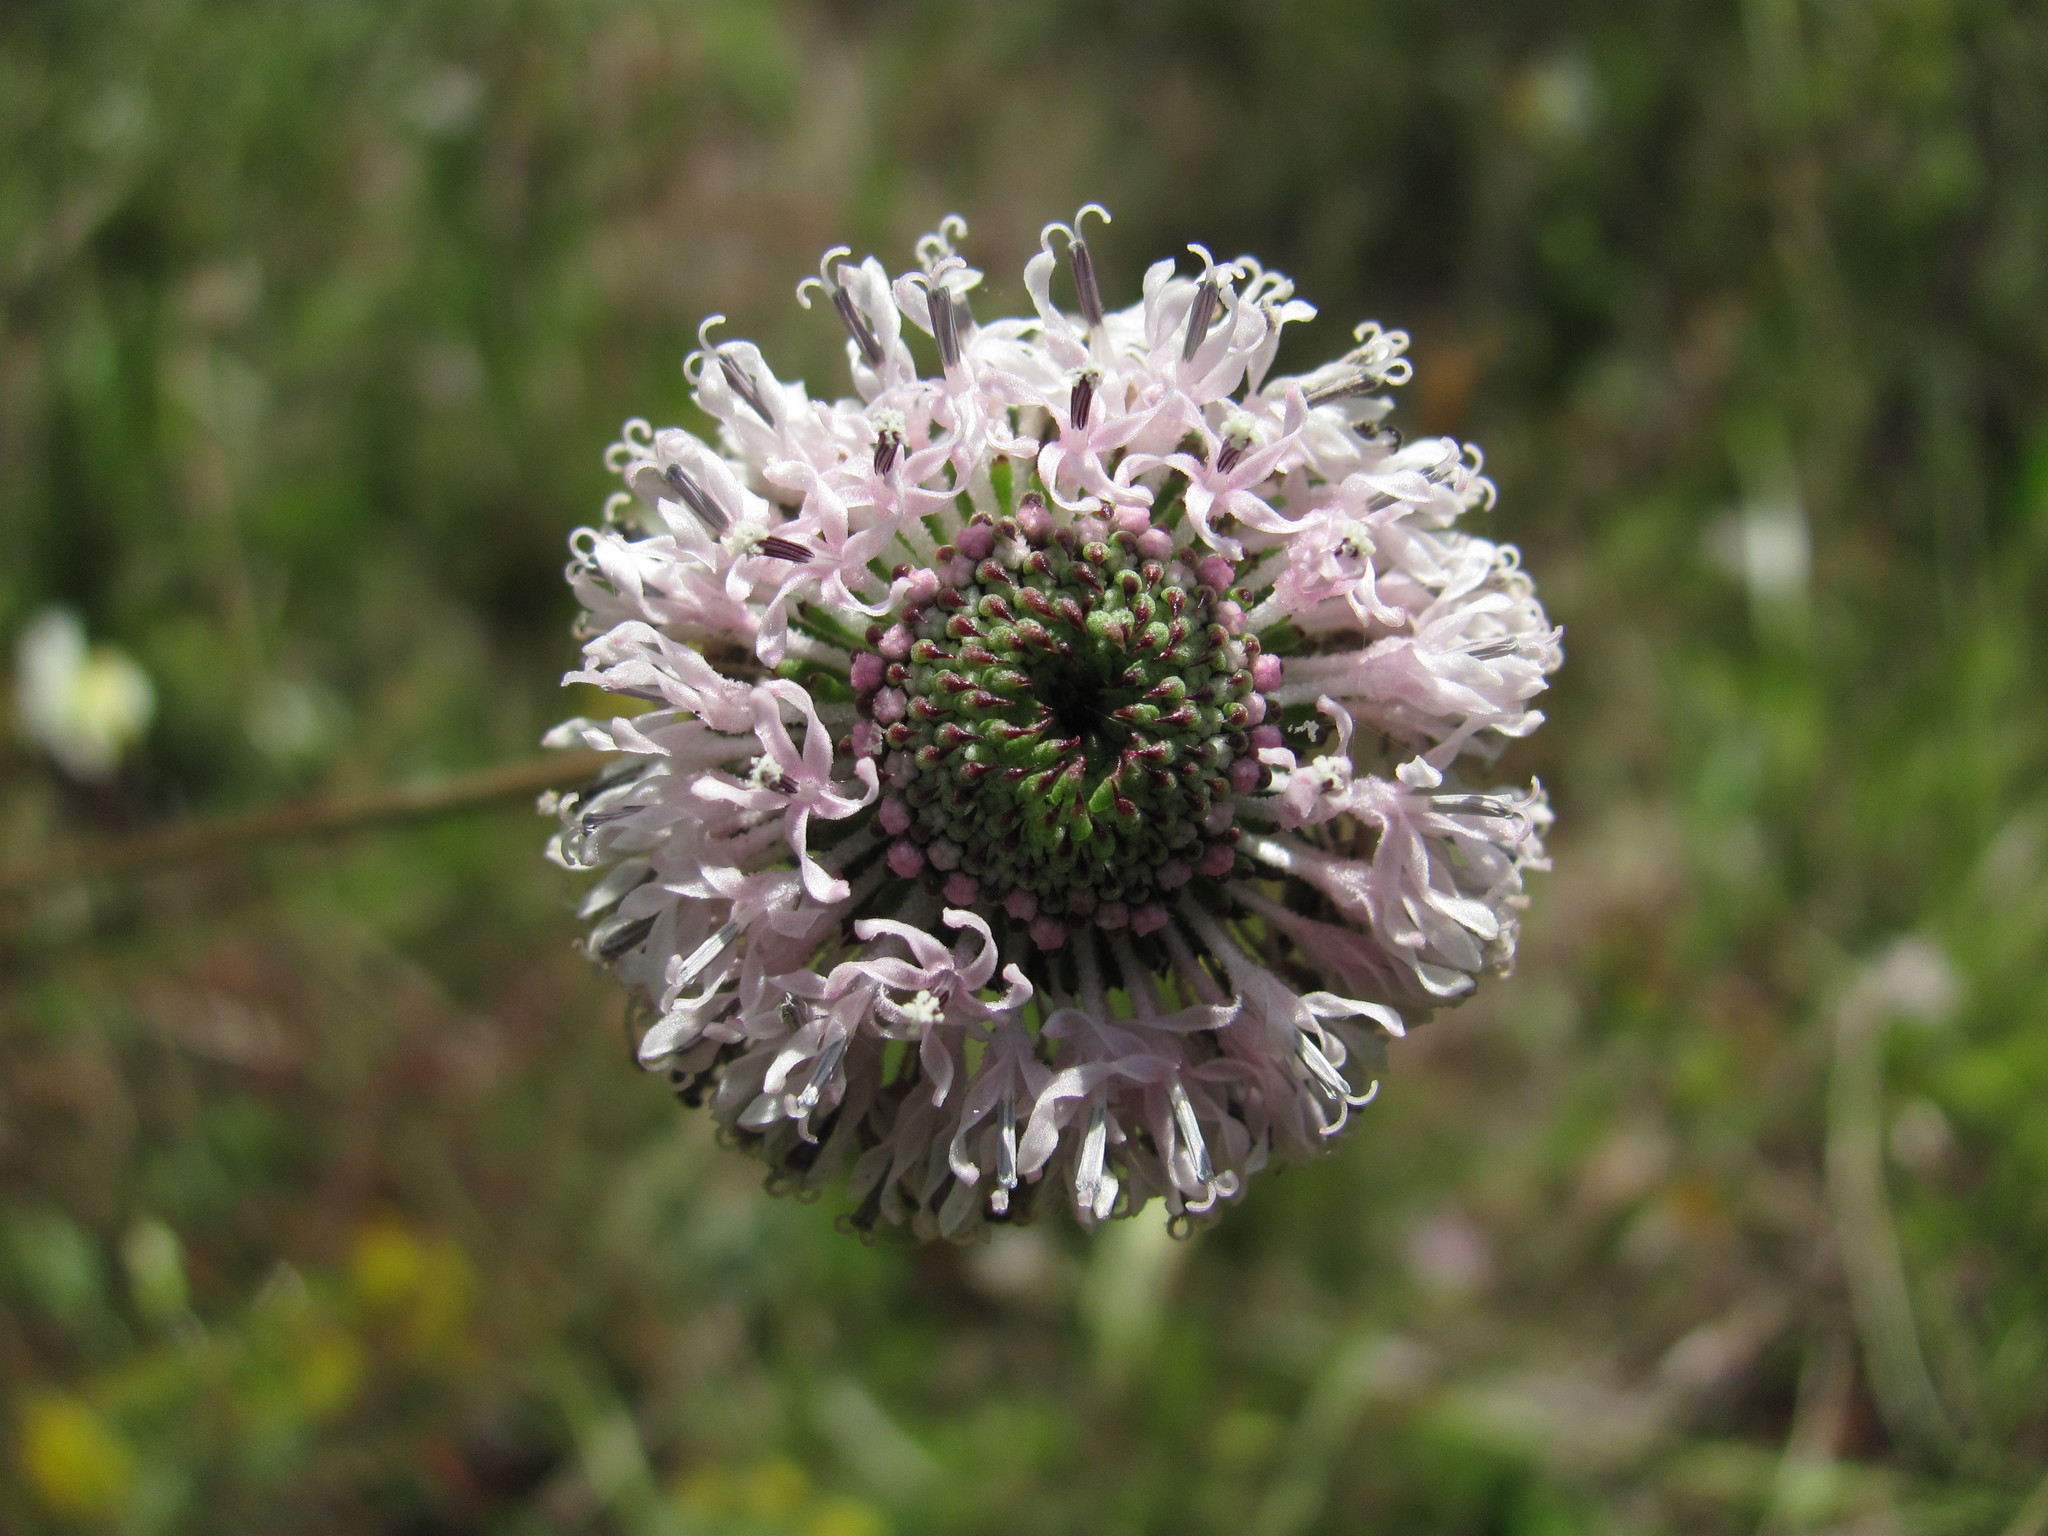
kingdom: Plantae
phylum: Tracheophyta
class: Magnoliopsida
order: Asterales
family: Asteraceae
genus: Marshallia
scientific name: Marshallia graminifolia
